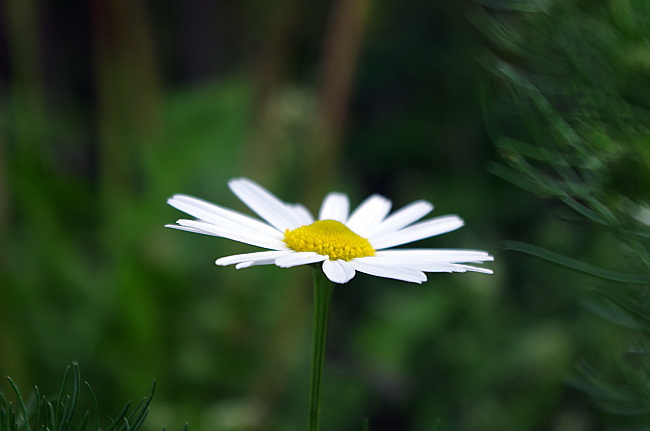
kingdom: Plantae
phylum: Tracheophyta
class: Magnoliopsida
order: Asterales
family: Asteraceae
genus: Tripleurospermum
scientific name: Tripleurospermum inodorum
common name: Scentless mayweed
